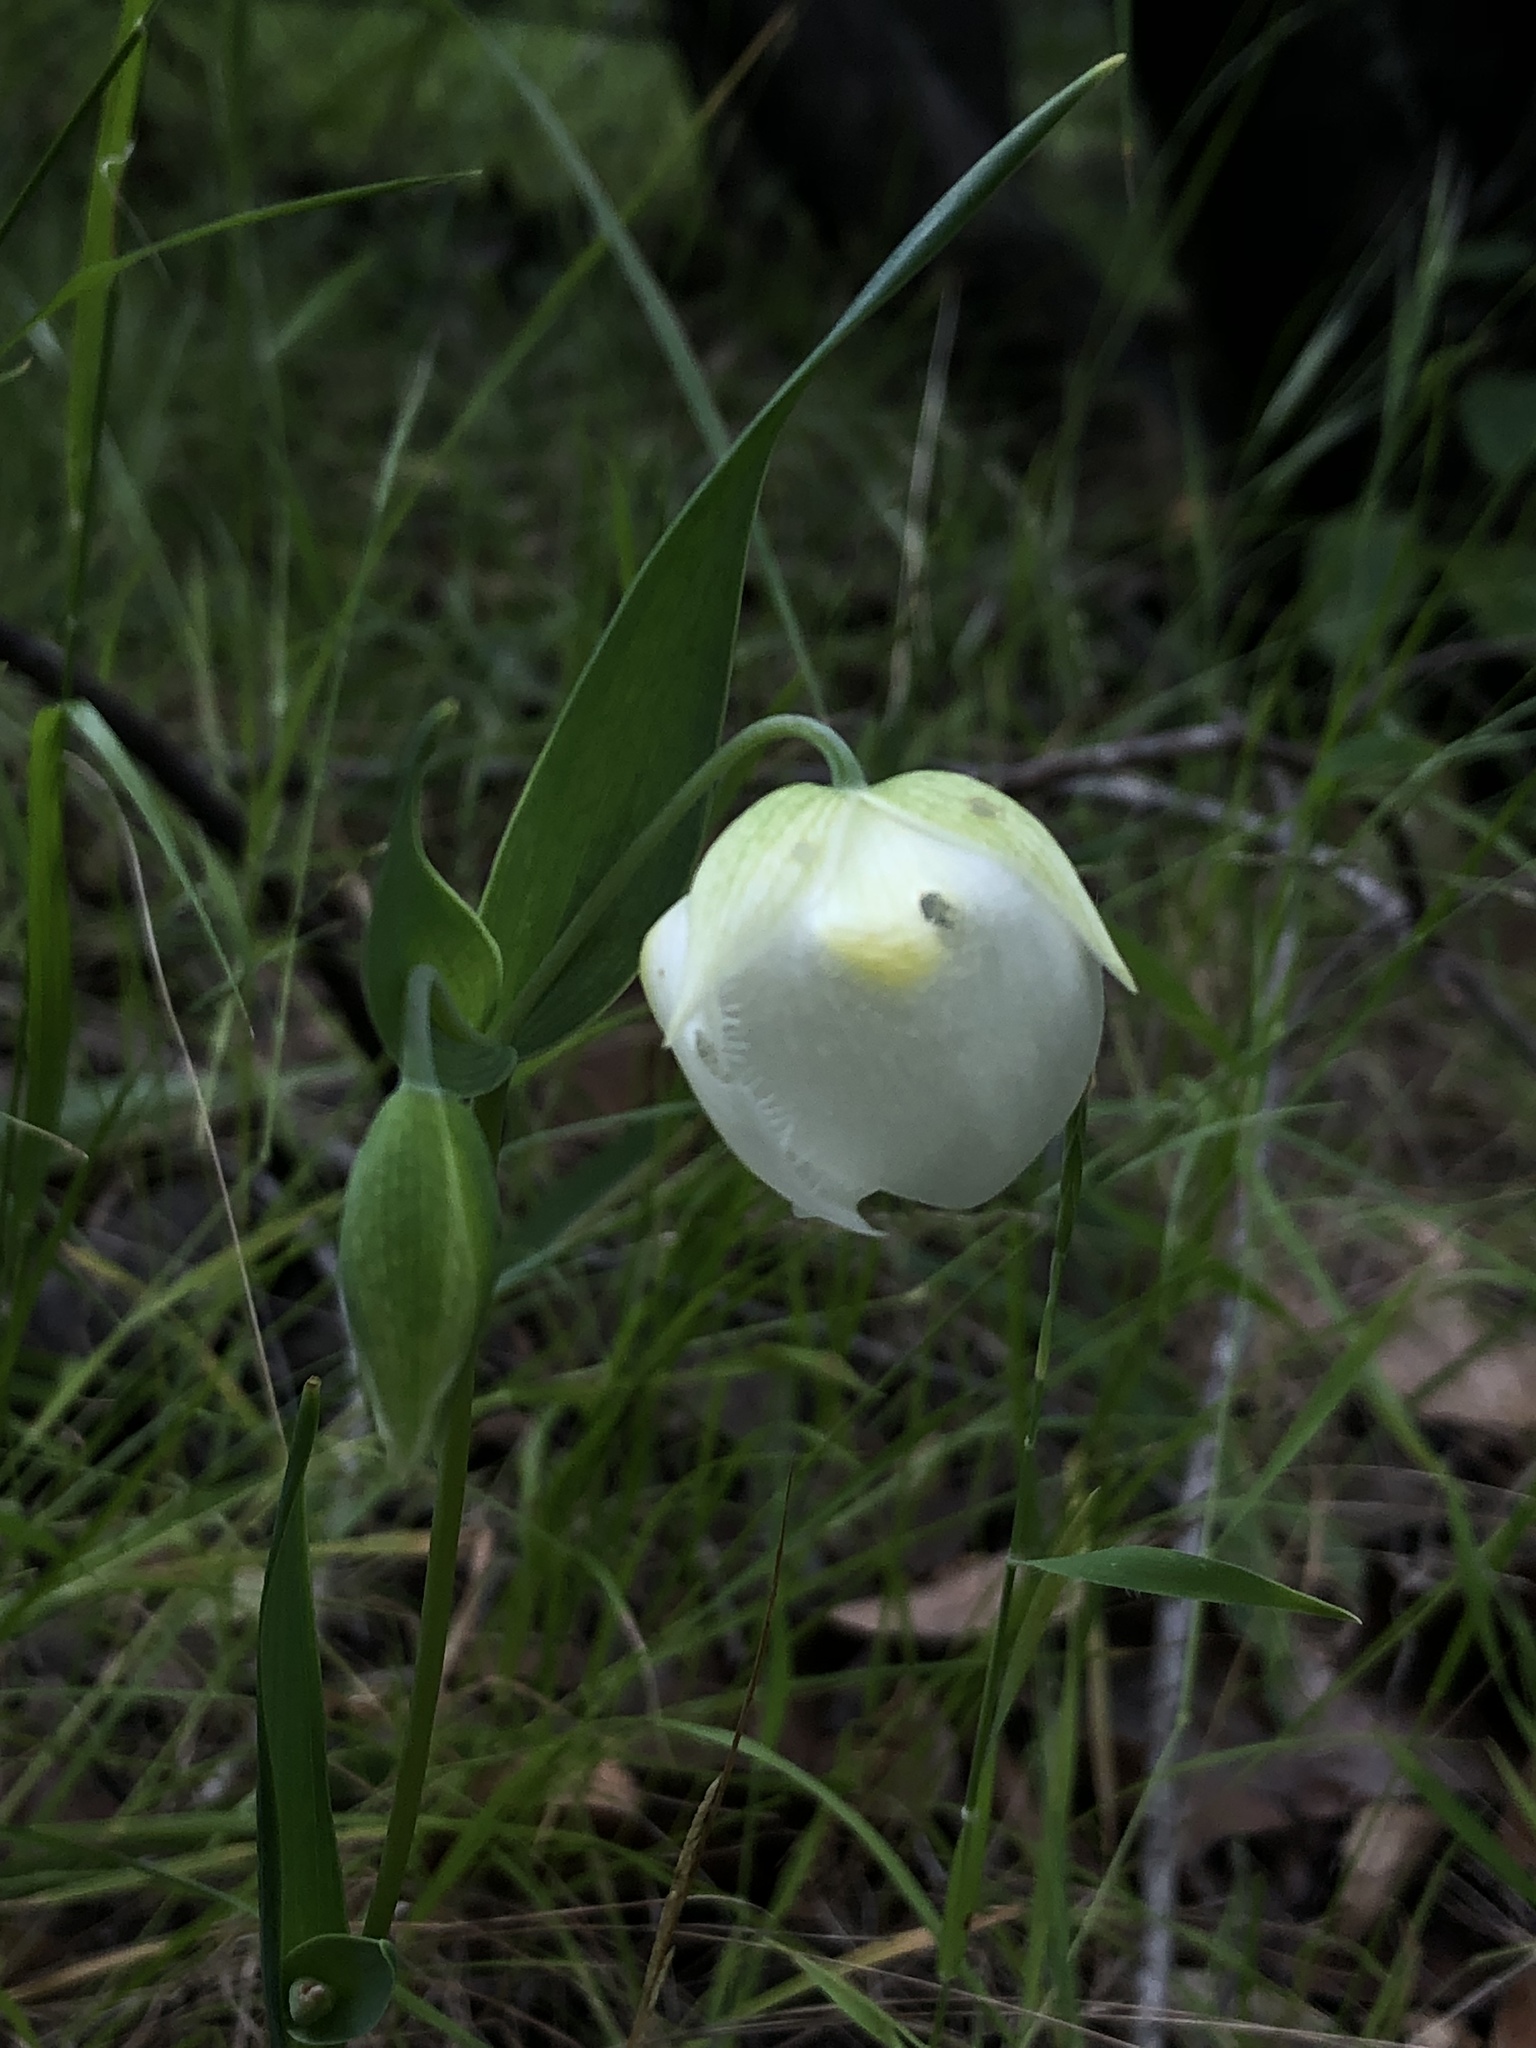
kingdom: Plantae
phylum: Tracheophyta
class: Liliopsida
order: Liliales
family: Liliaceae
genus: Calochortus
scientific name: Calochortus albus
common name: Fairy-lantern
